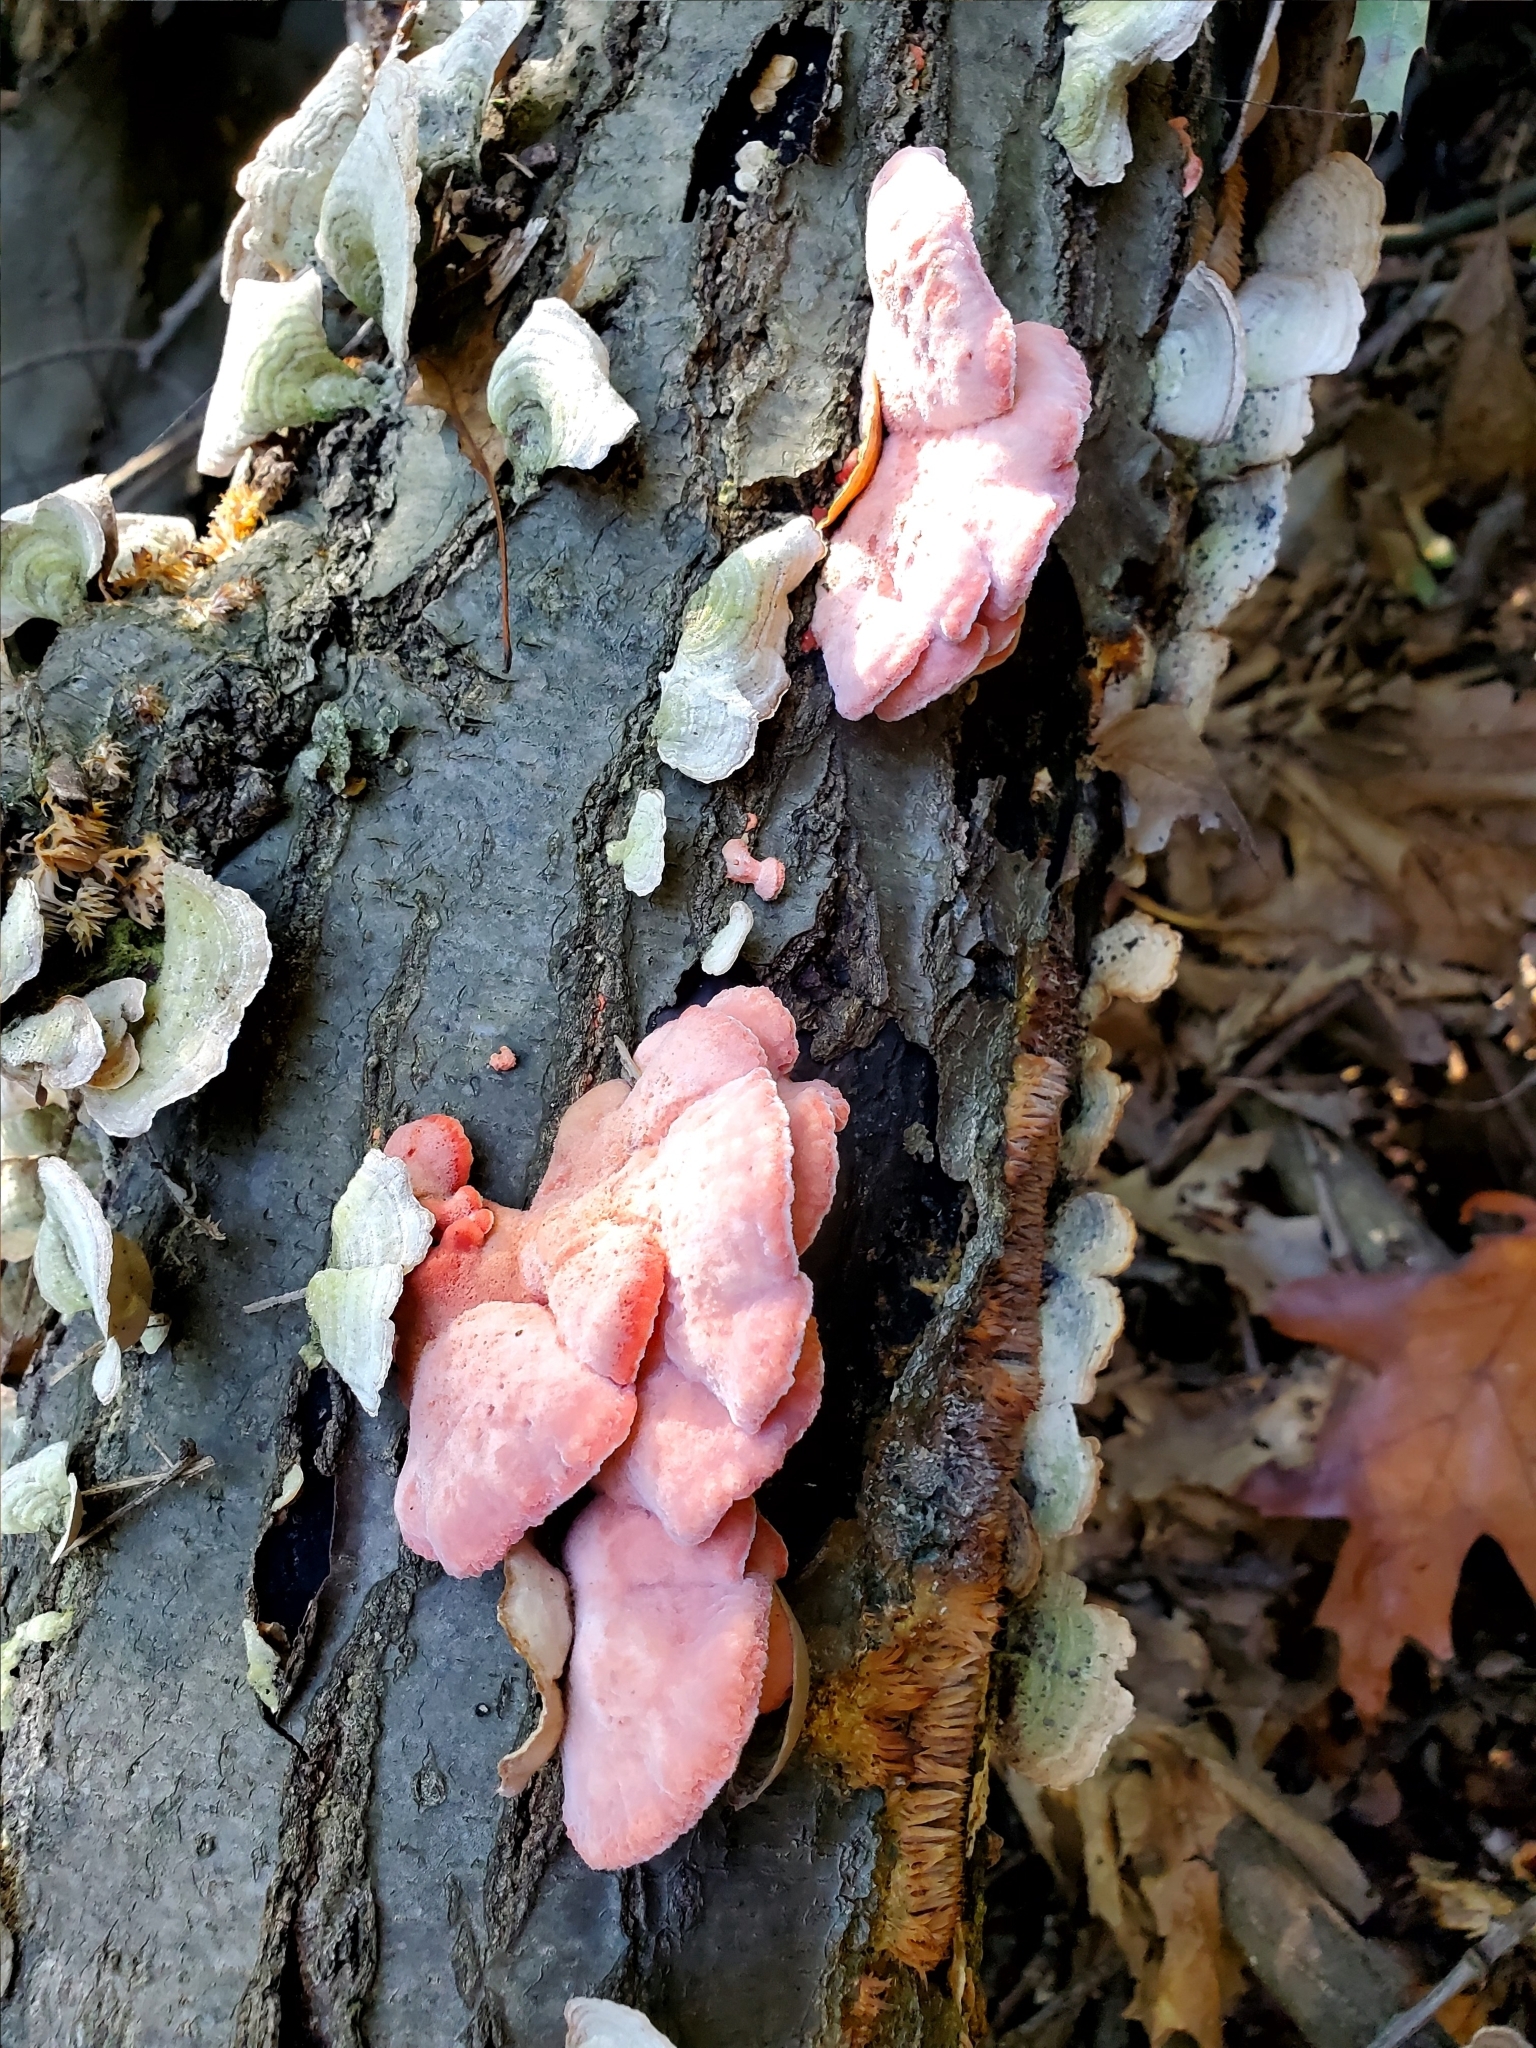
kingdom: Fungi
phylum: Basidiomycota
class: Agaricomycetes
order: Polyporales
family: Irpicaceae
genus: Byssomerulius
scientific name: Byssomerulius incarnatus
